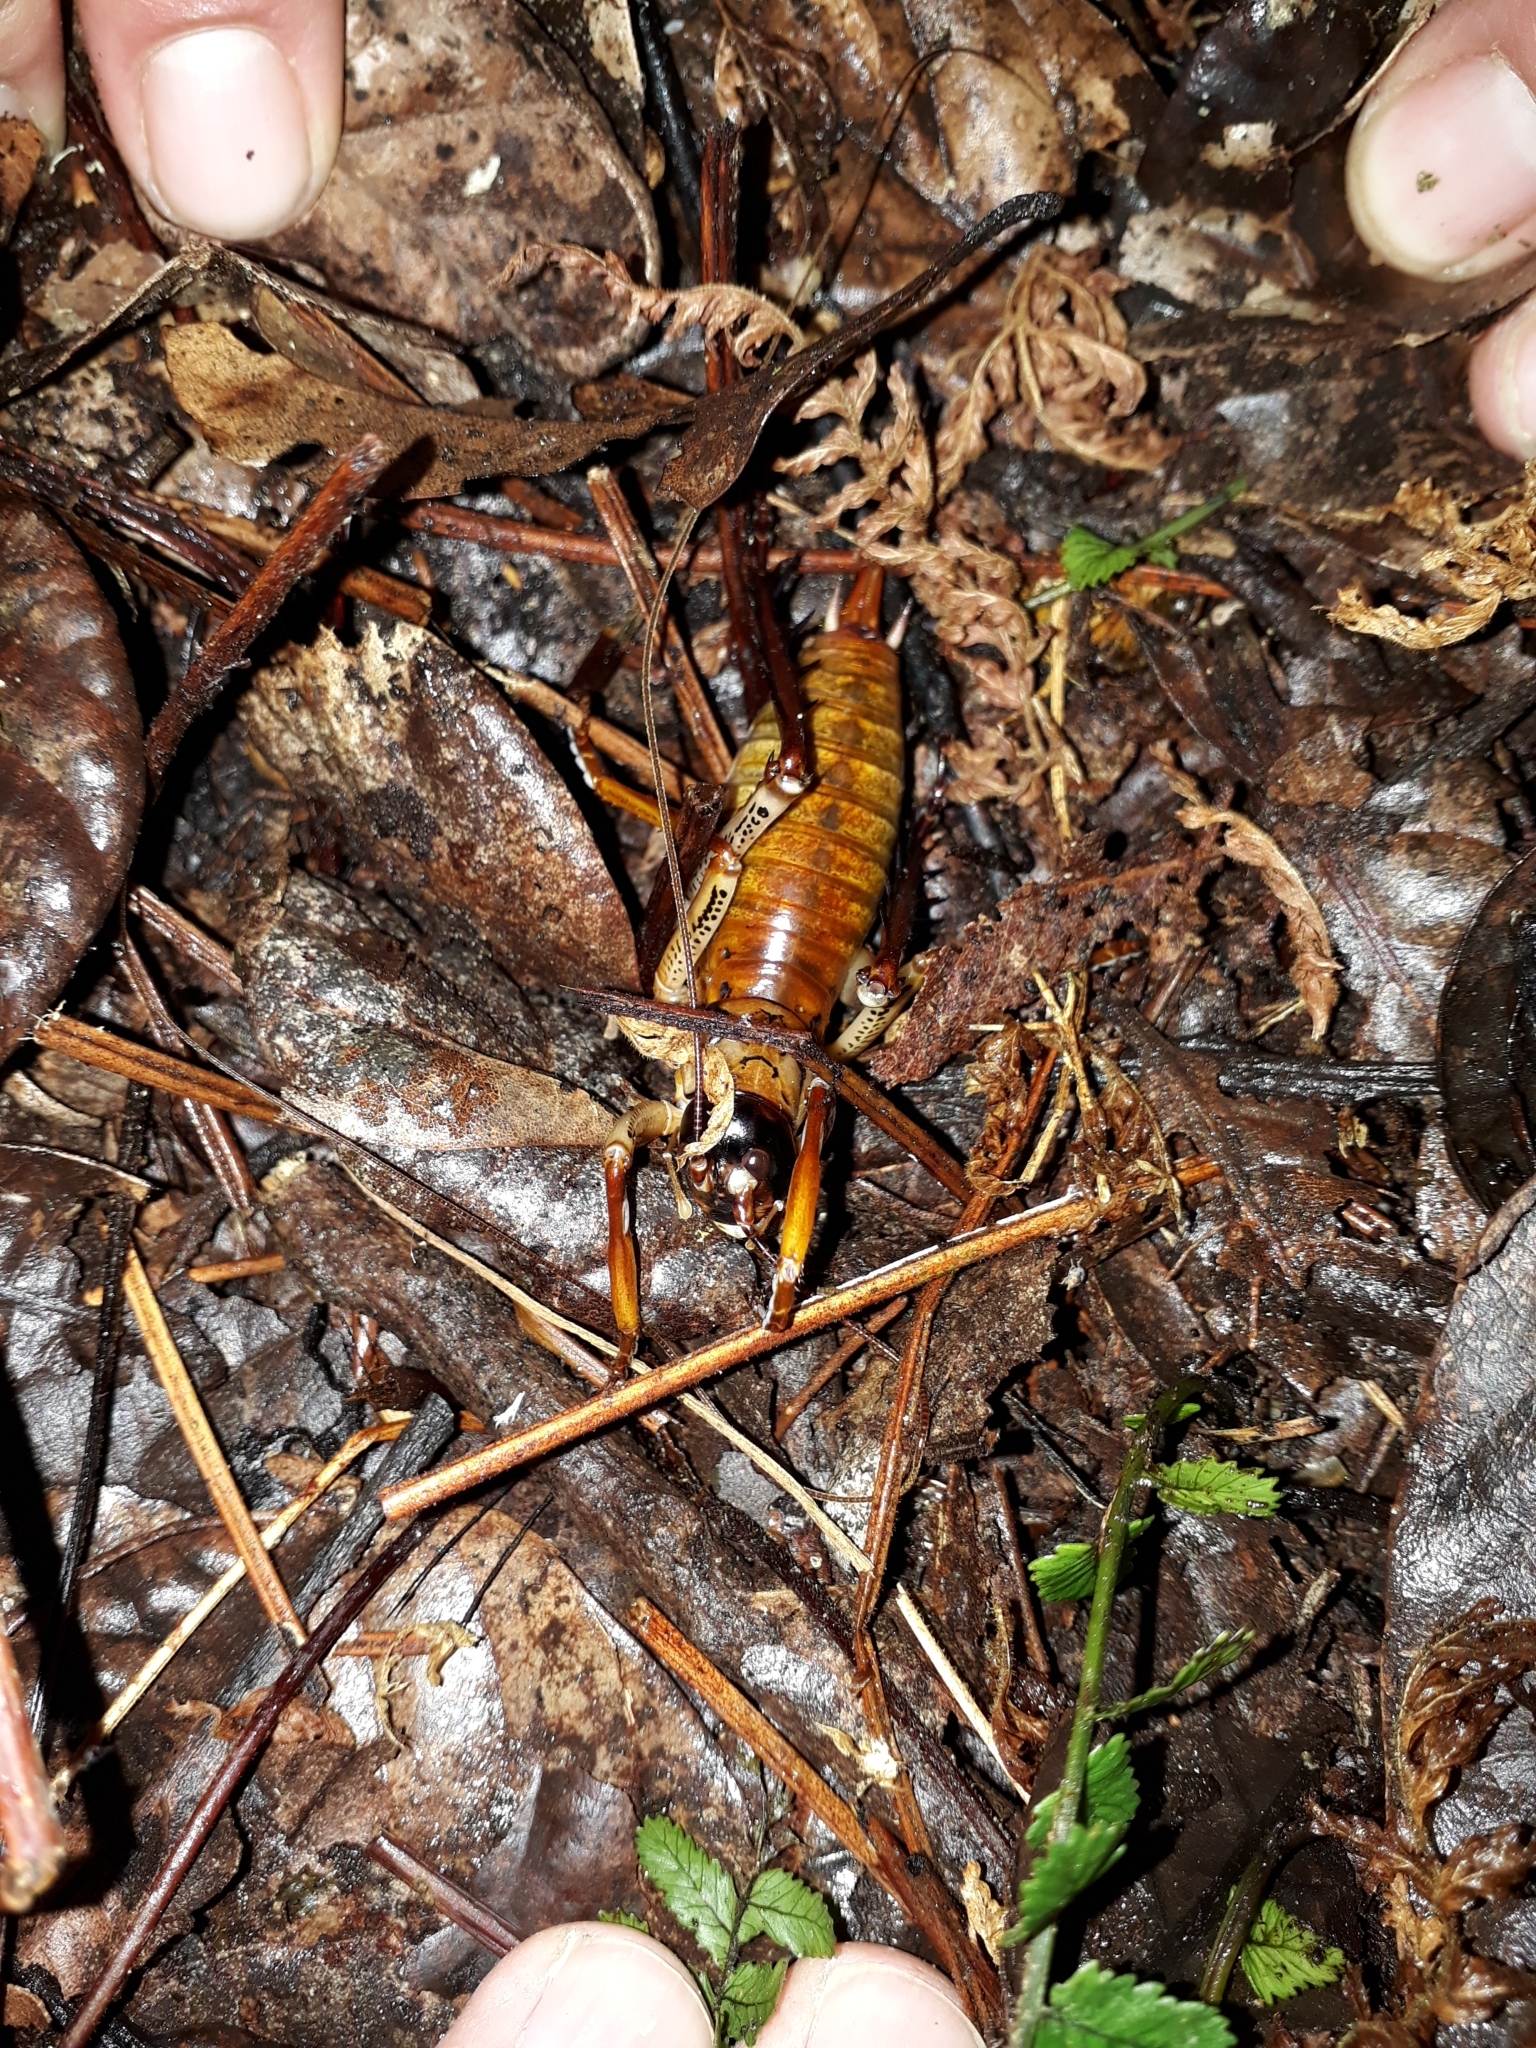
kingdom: Animalia
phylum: Arthropoda
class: Insecta
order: Orthoptera
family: Anostostomatidae
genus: Hemideina
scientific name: Hemideina thoracica
